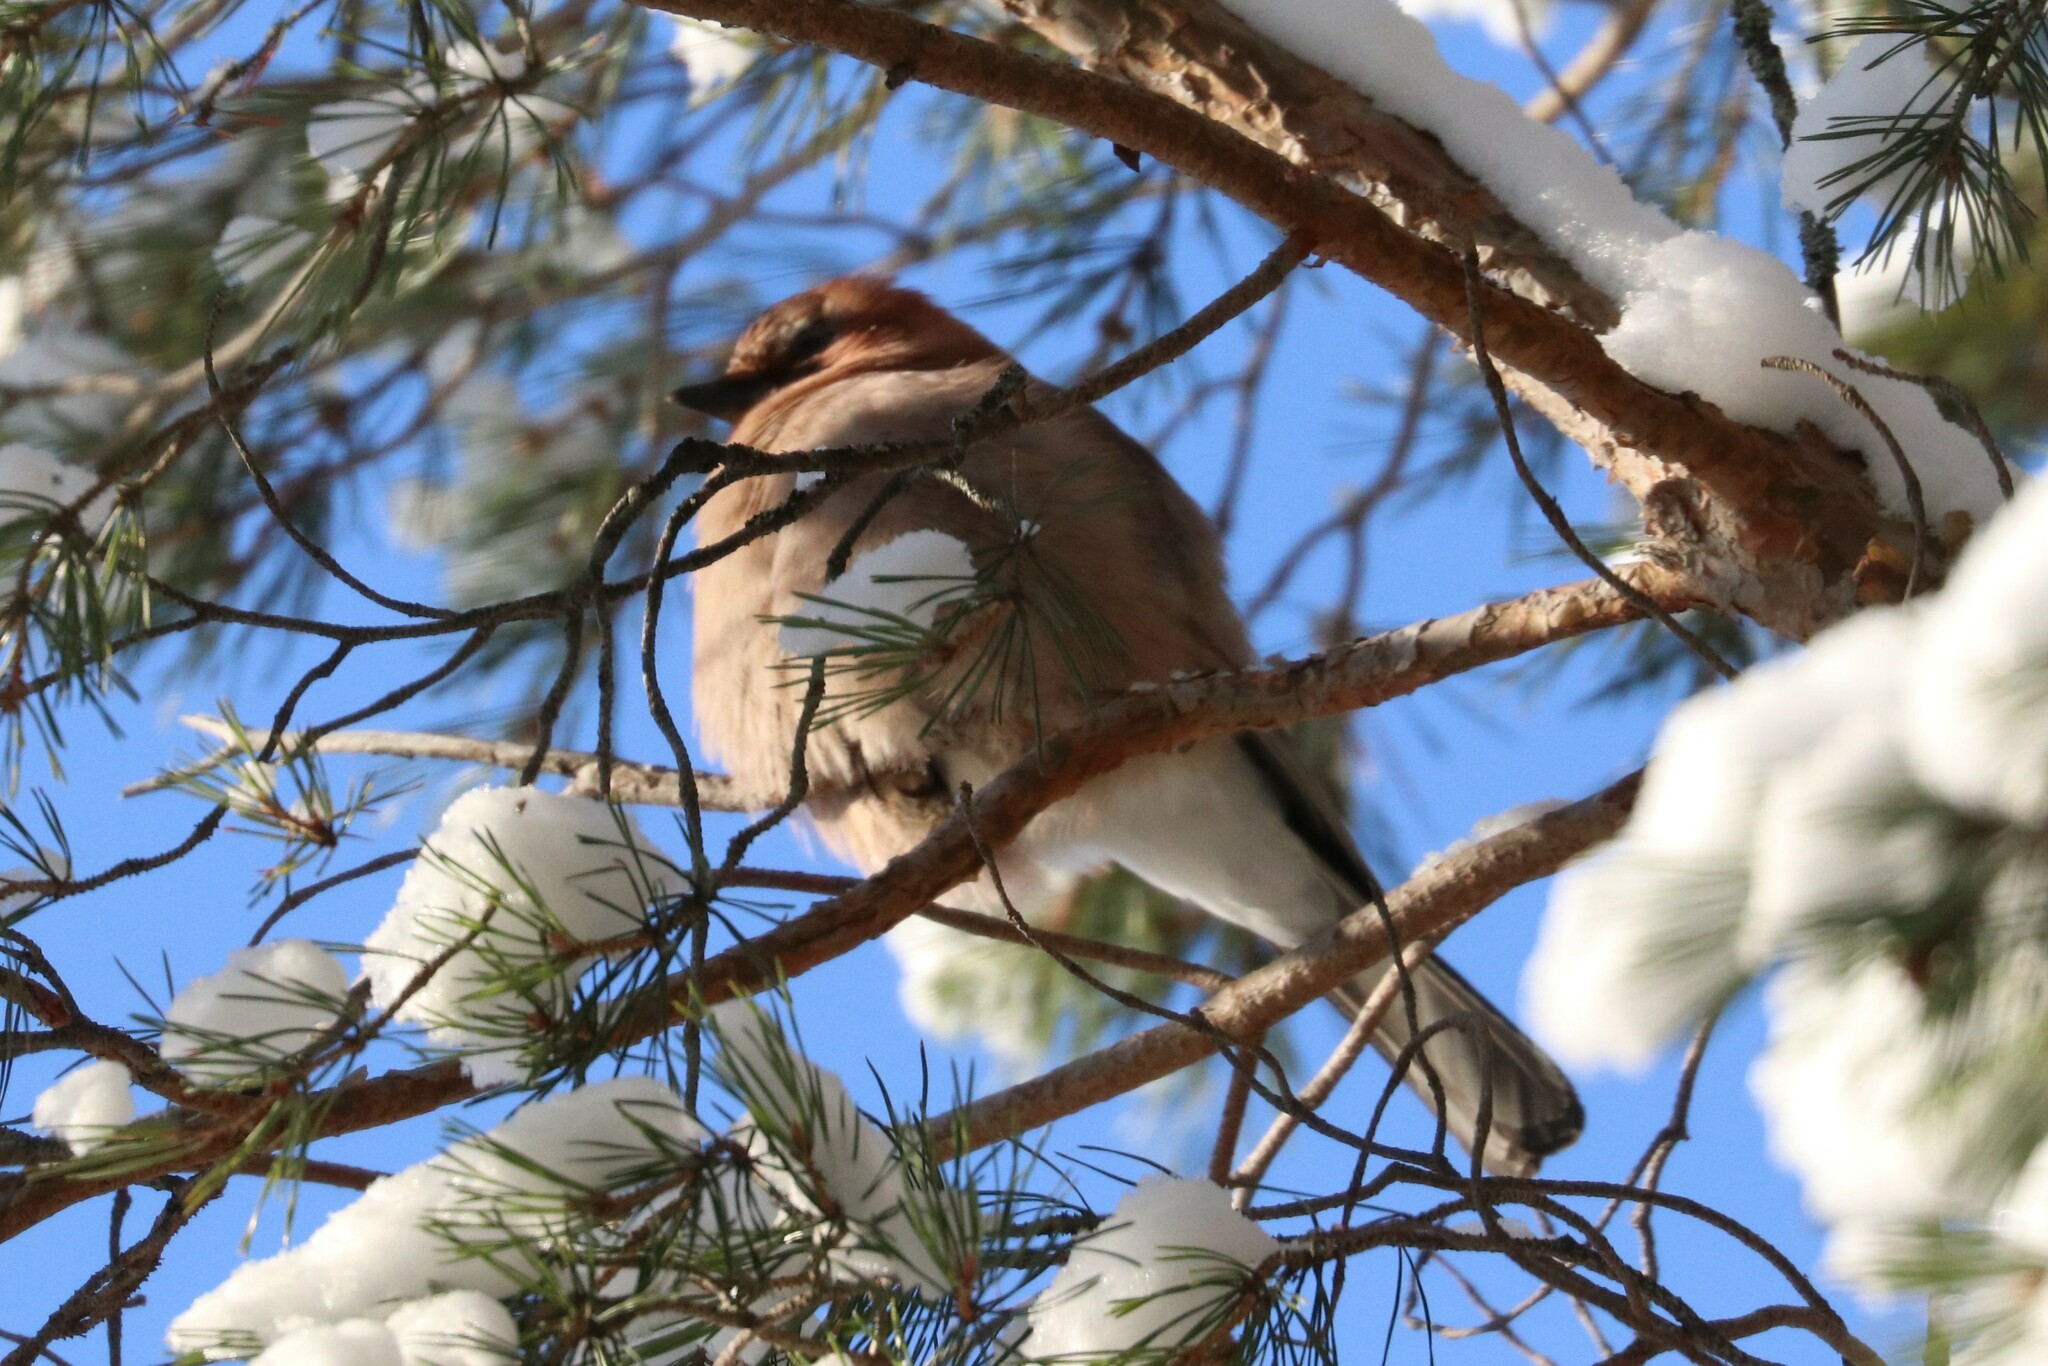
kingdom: Animalia
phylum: Chordata
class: Aves
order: Passeriformes
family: Corvidae
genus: Garrulus
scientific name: Garrulus glandarius
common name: Eurasian jay
